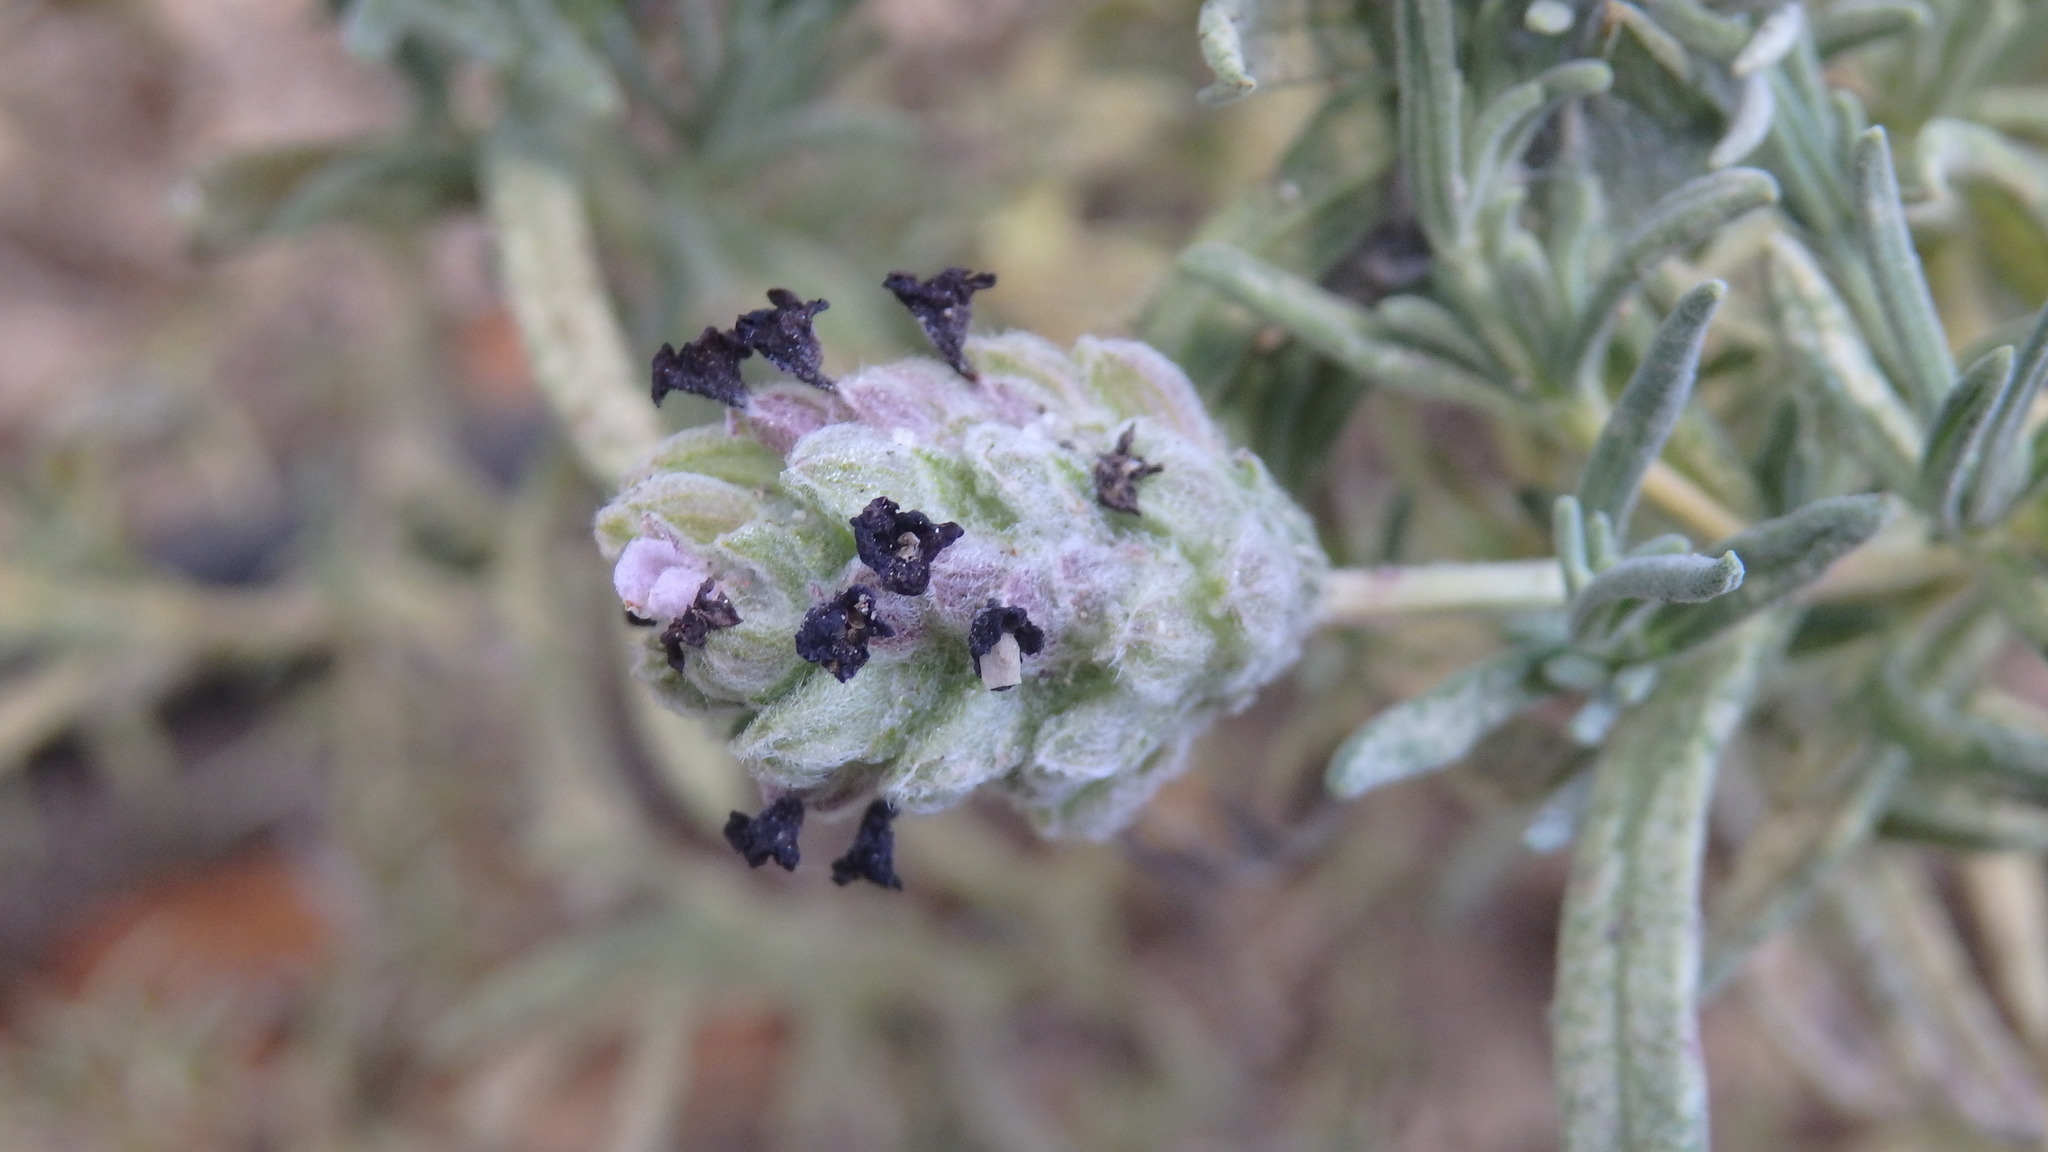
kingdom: Plantae
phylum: Tracheophyta
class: Magnoliopsida
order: Lamiales
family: Lamiaceae
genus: Lavandula
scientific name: Lavandula stoechas
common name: French lavender
